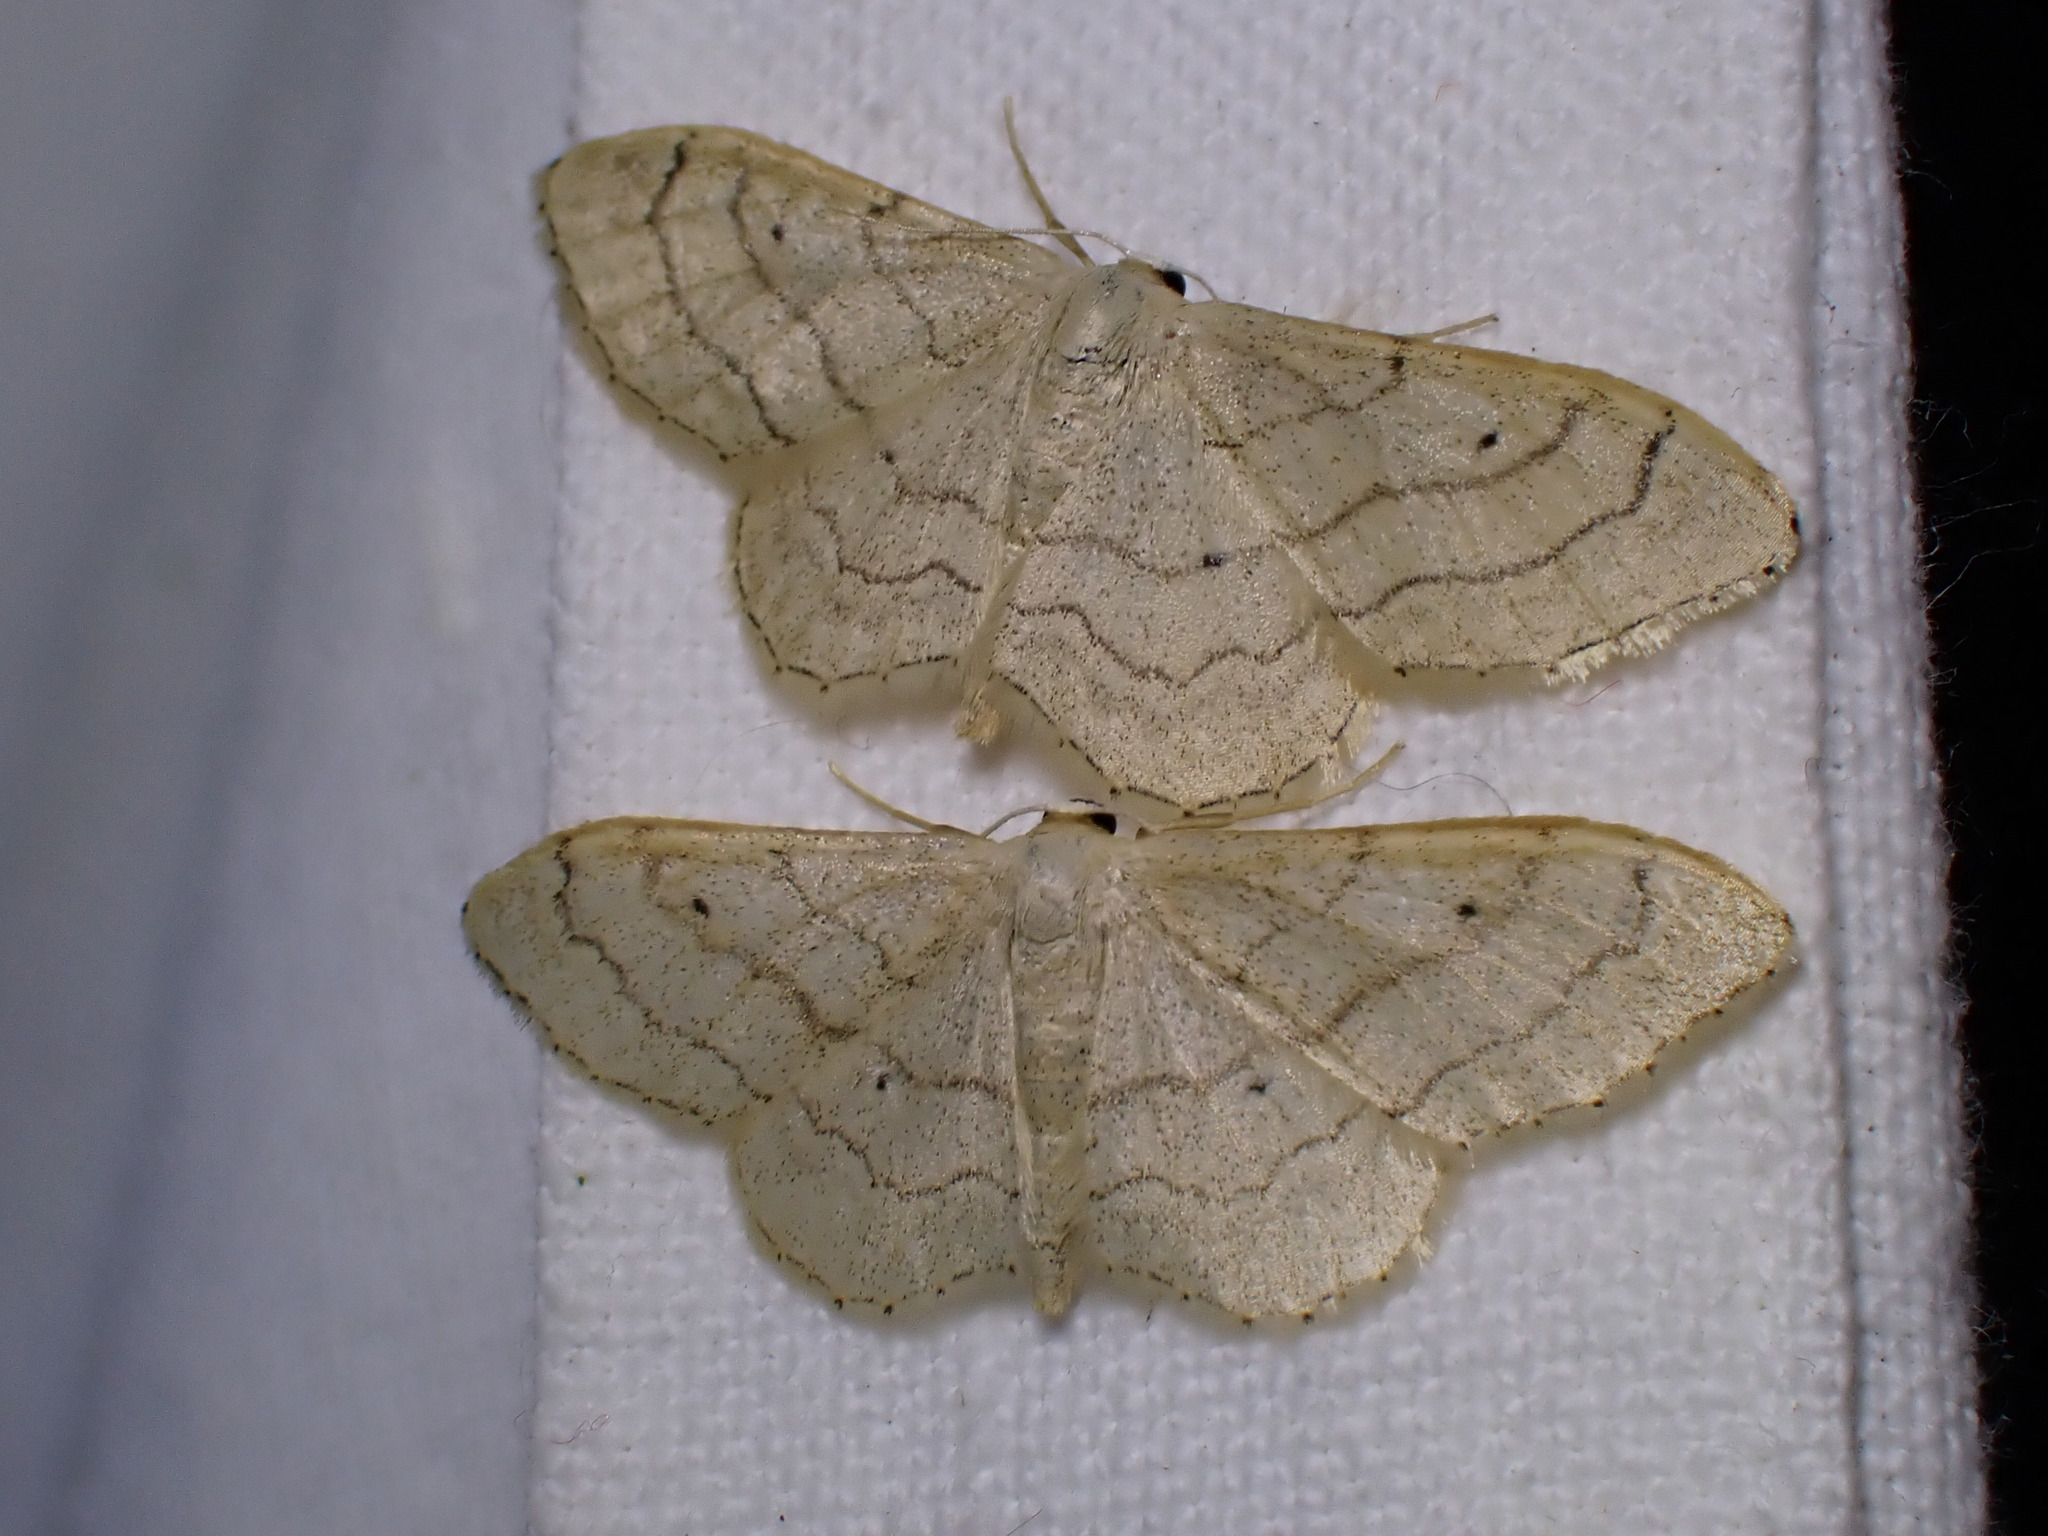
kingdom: Animalia
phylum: Arthropoda
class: Insecta
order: Lepidoptera
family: Geometridae
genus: Idaea
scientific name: Idaea aversata
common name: Riband wave
